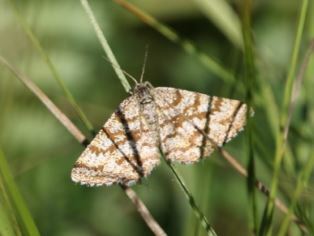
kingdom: Animalia
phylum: Arthropoda
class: Insecta
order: Lepidoptera
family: Geometridae
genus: Ematurga
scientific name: Ematurga atomaria
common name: Common heath
